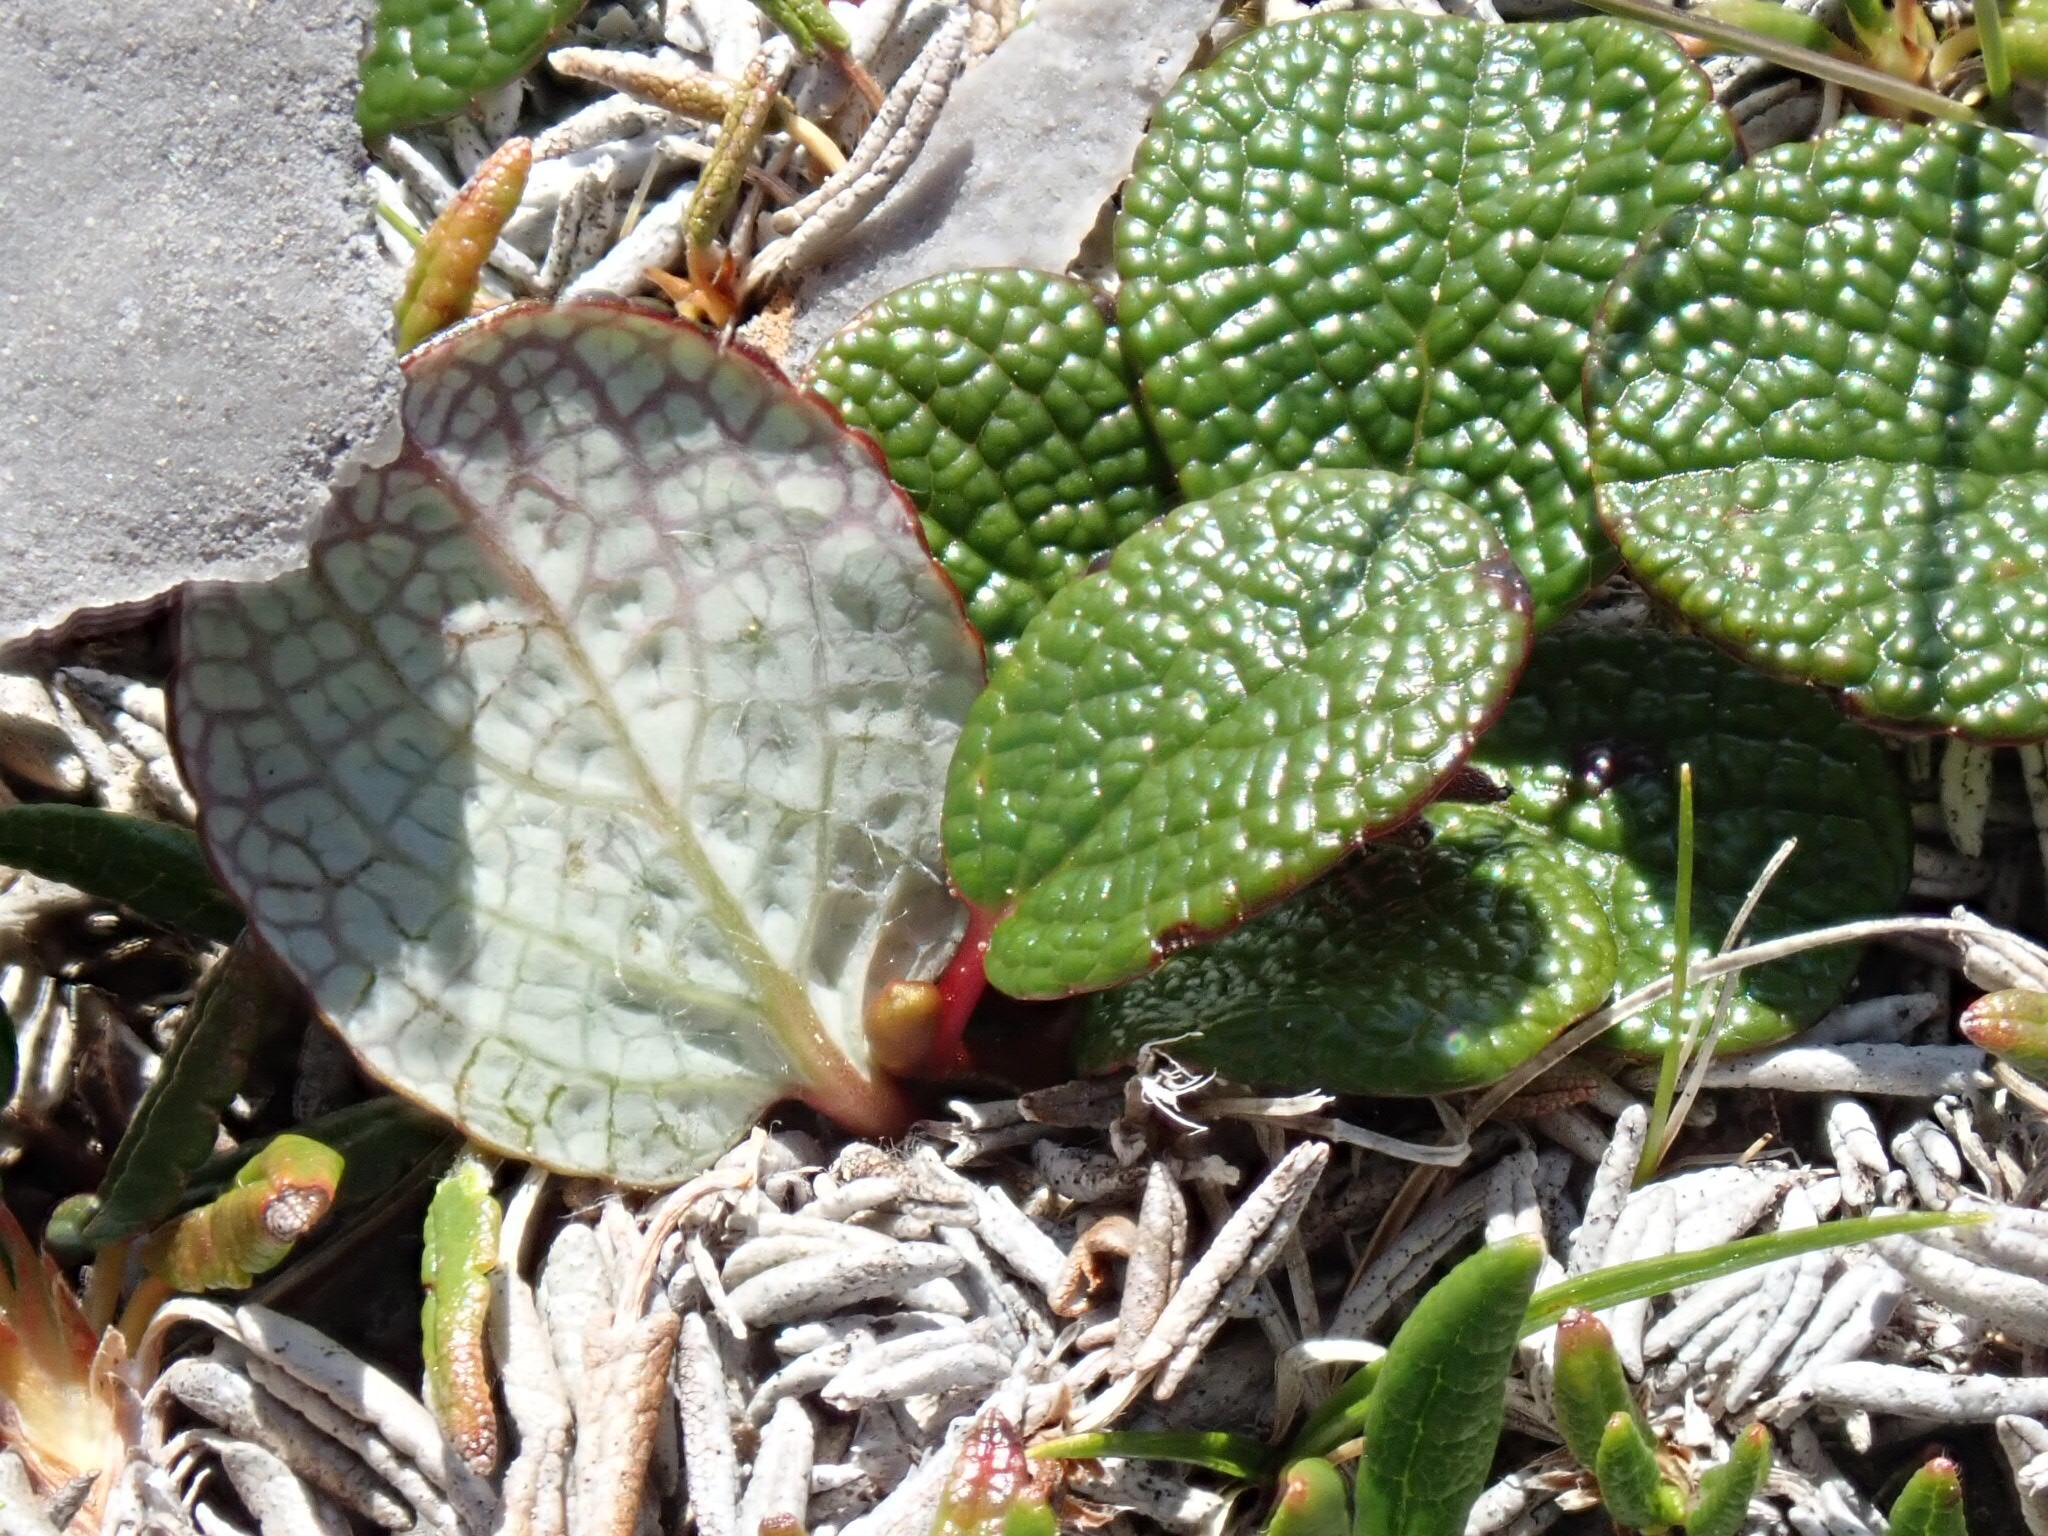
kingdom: Plantae
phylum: Tracheophyta
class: Magnoliopsida
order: Malpighiales
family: Salicaceae
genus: Salix
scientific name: Salix reticulata
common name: Net-leaved willow
